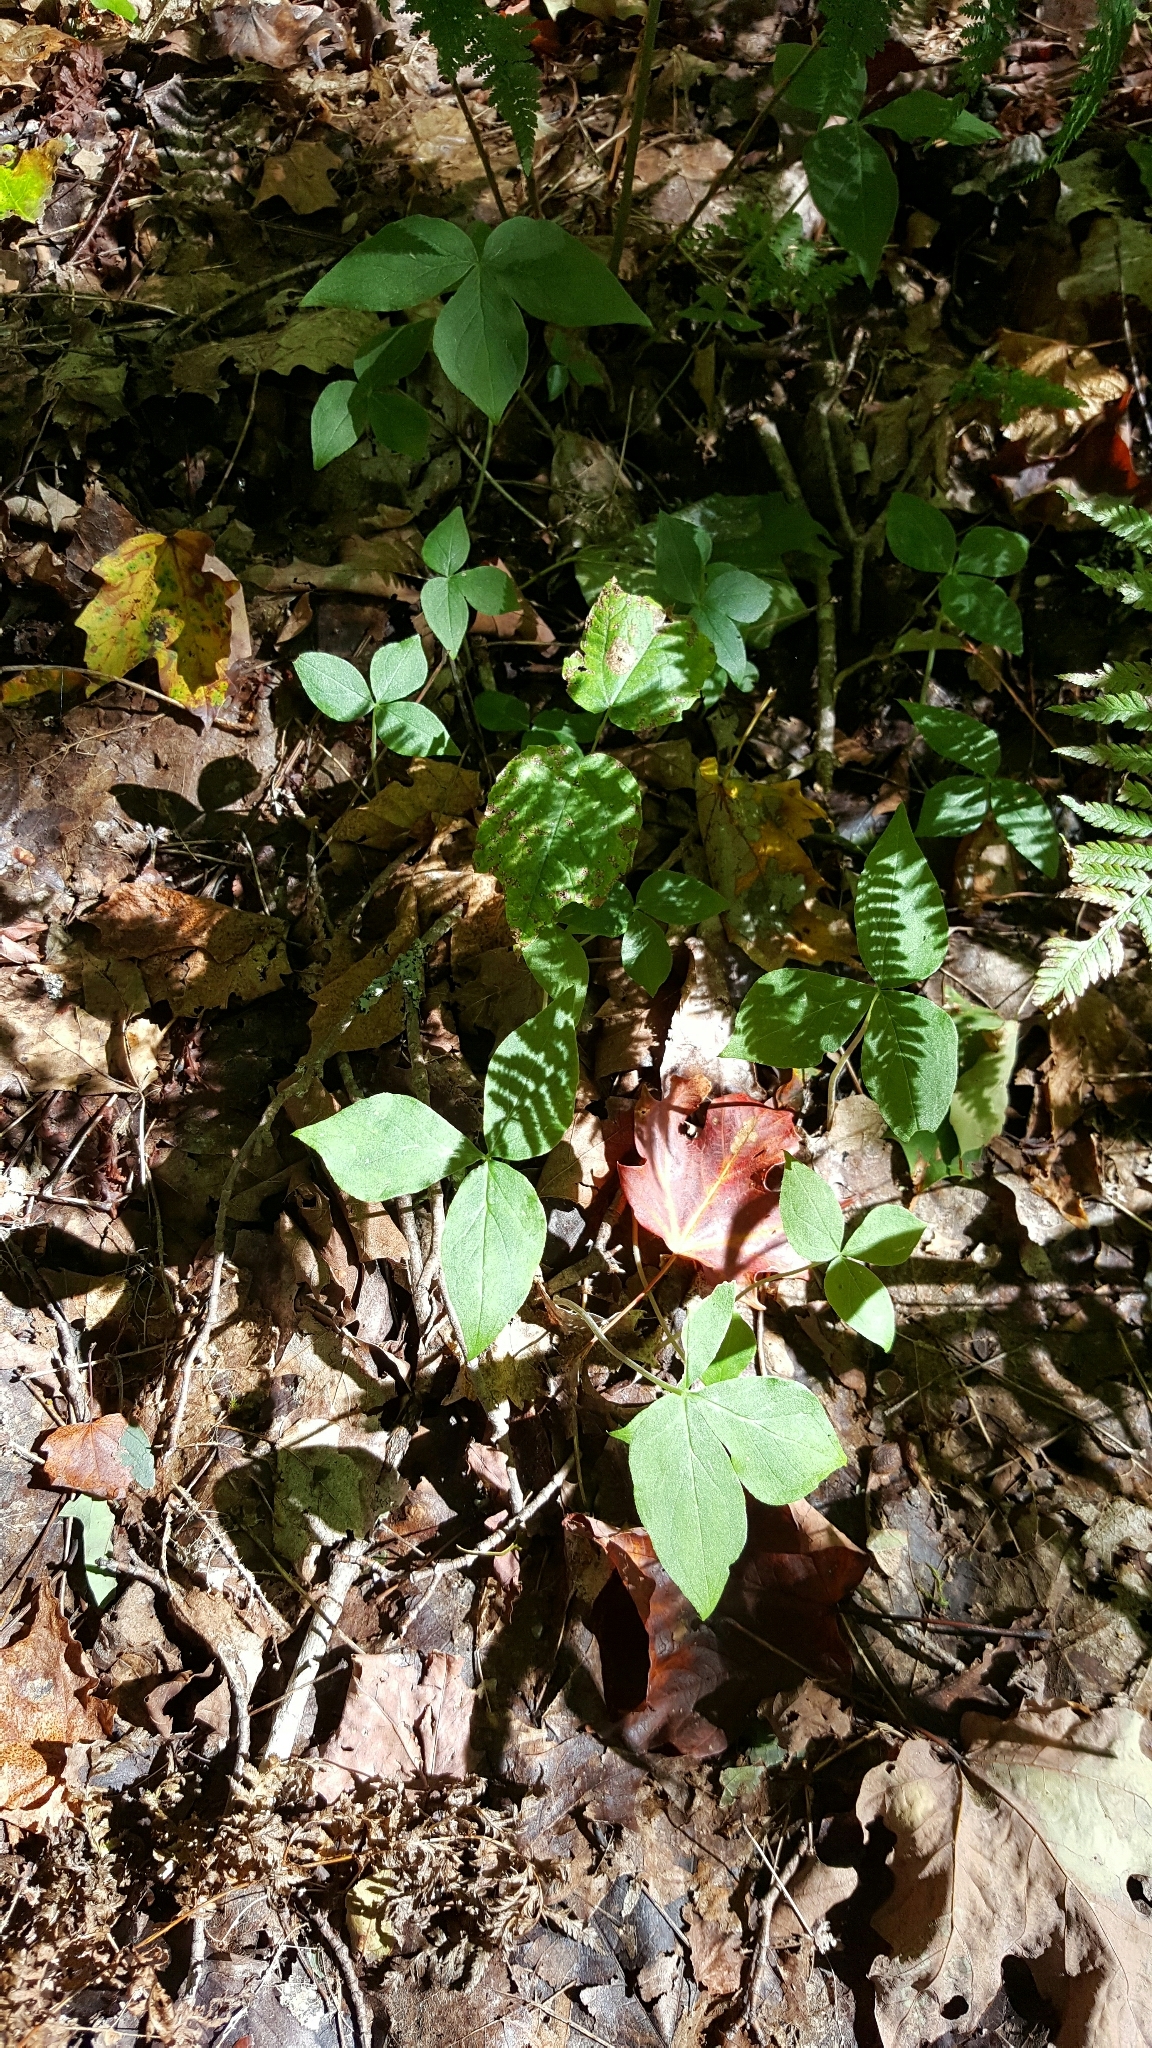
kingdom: Plantae
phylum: Tracheophyta
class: Liliopsida
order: Alismatales
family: Araceae
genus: Arisaema
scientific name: Arisaema triphyllum
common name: Jack-in-the-pulpit
